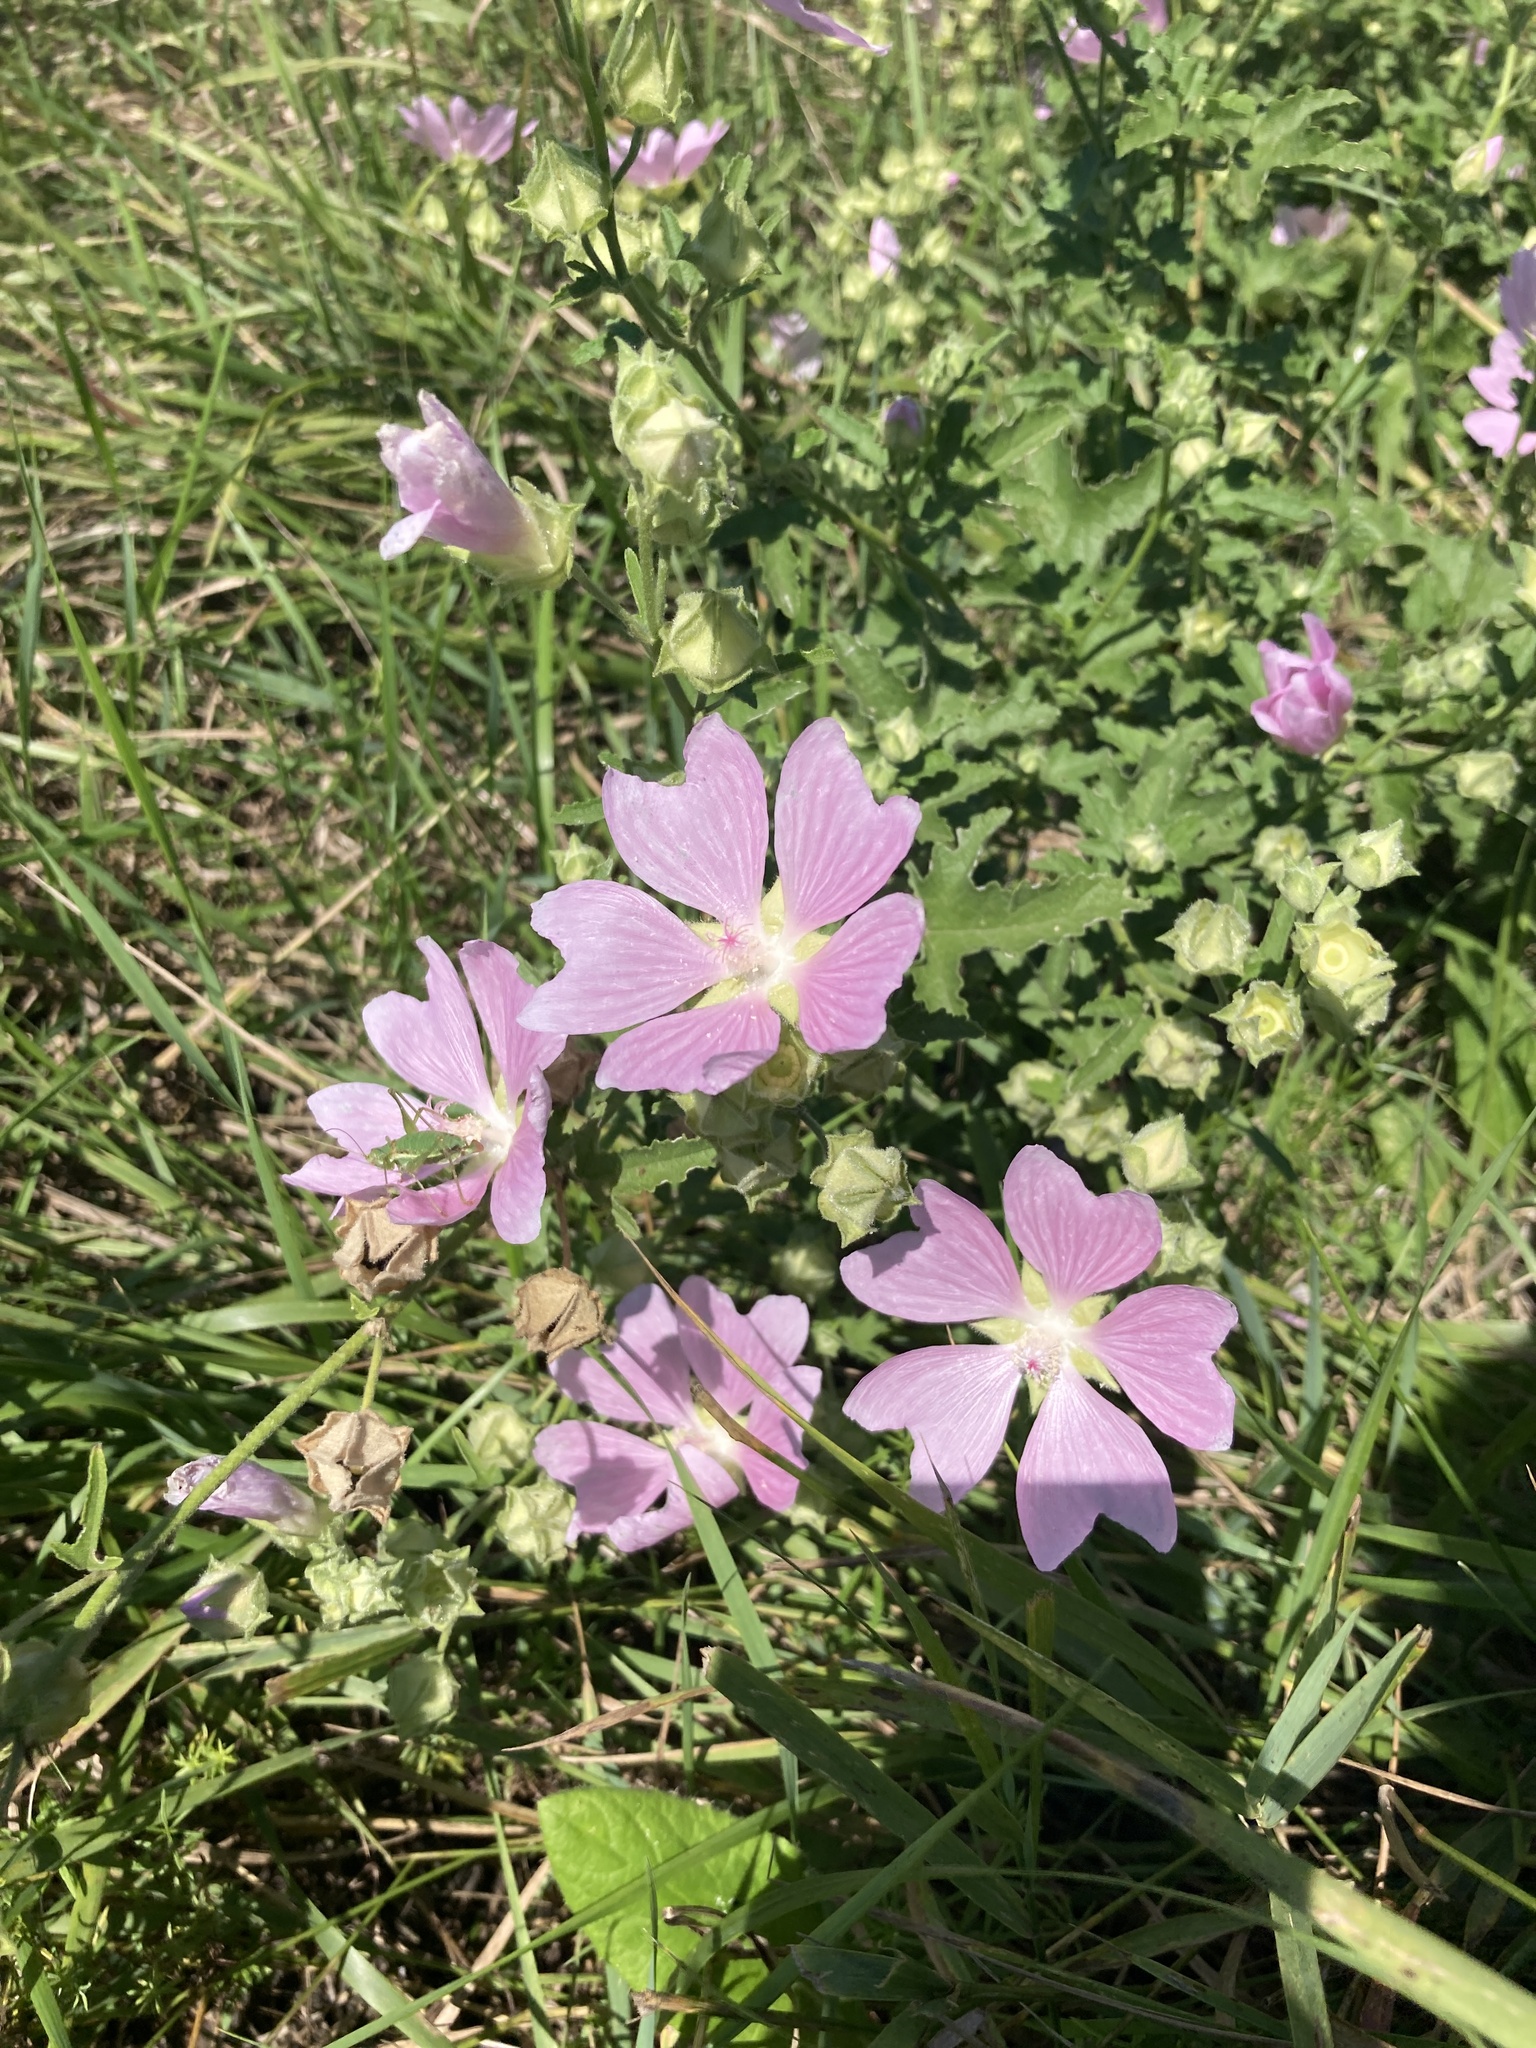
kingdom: Plantae
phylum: Tracheophyta
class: Magnoliopsida
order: Malvales
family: Malvaceae
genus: Malva
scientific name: Malva thuringiaca
